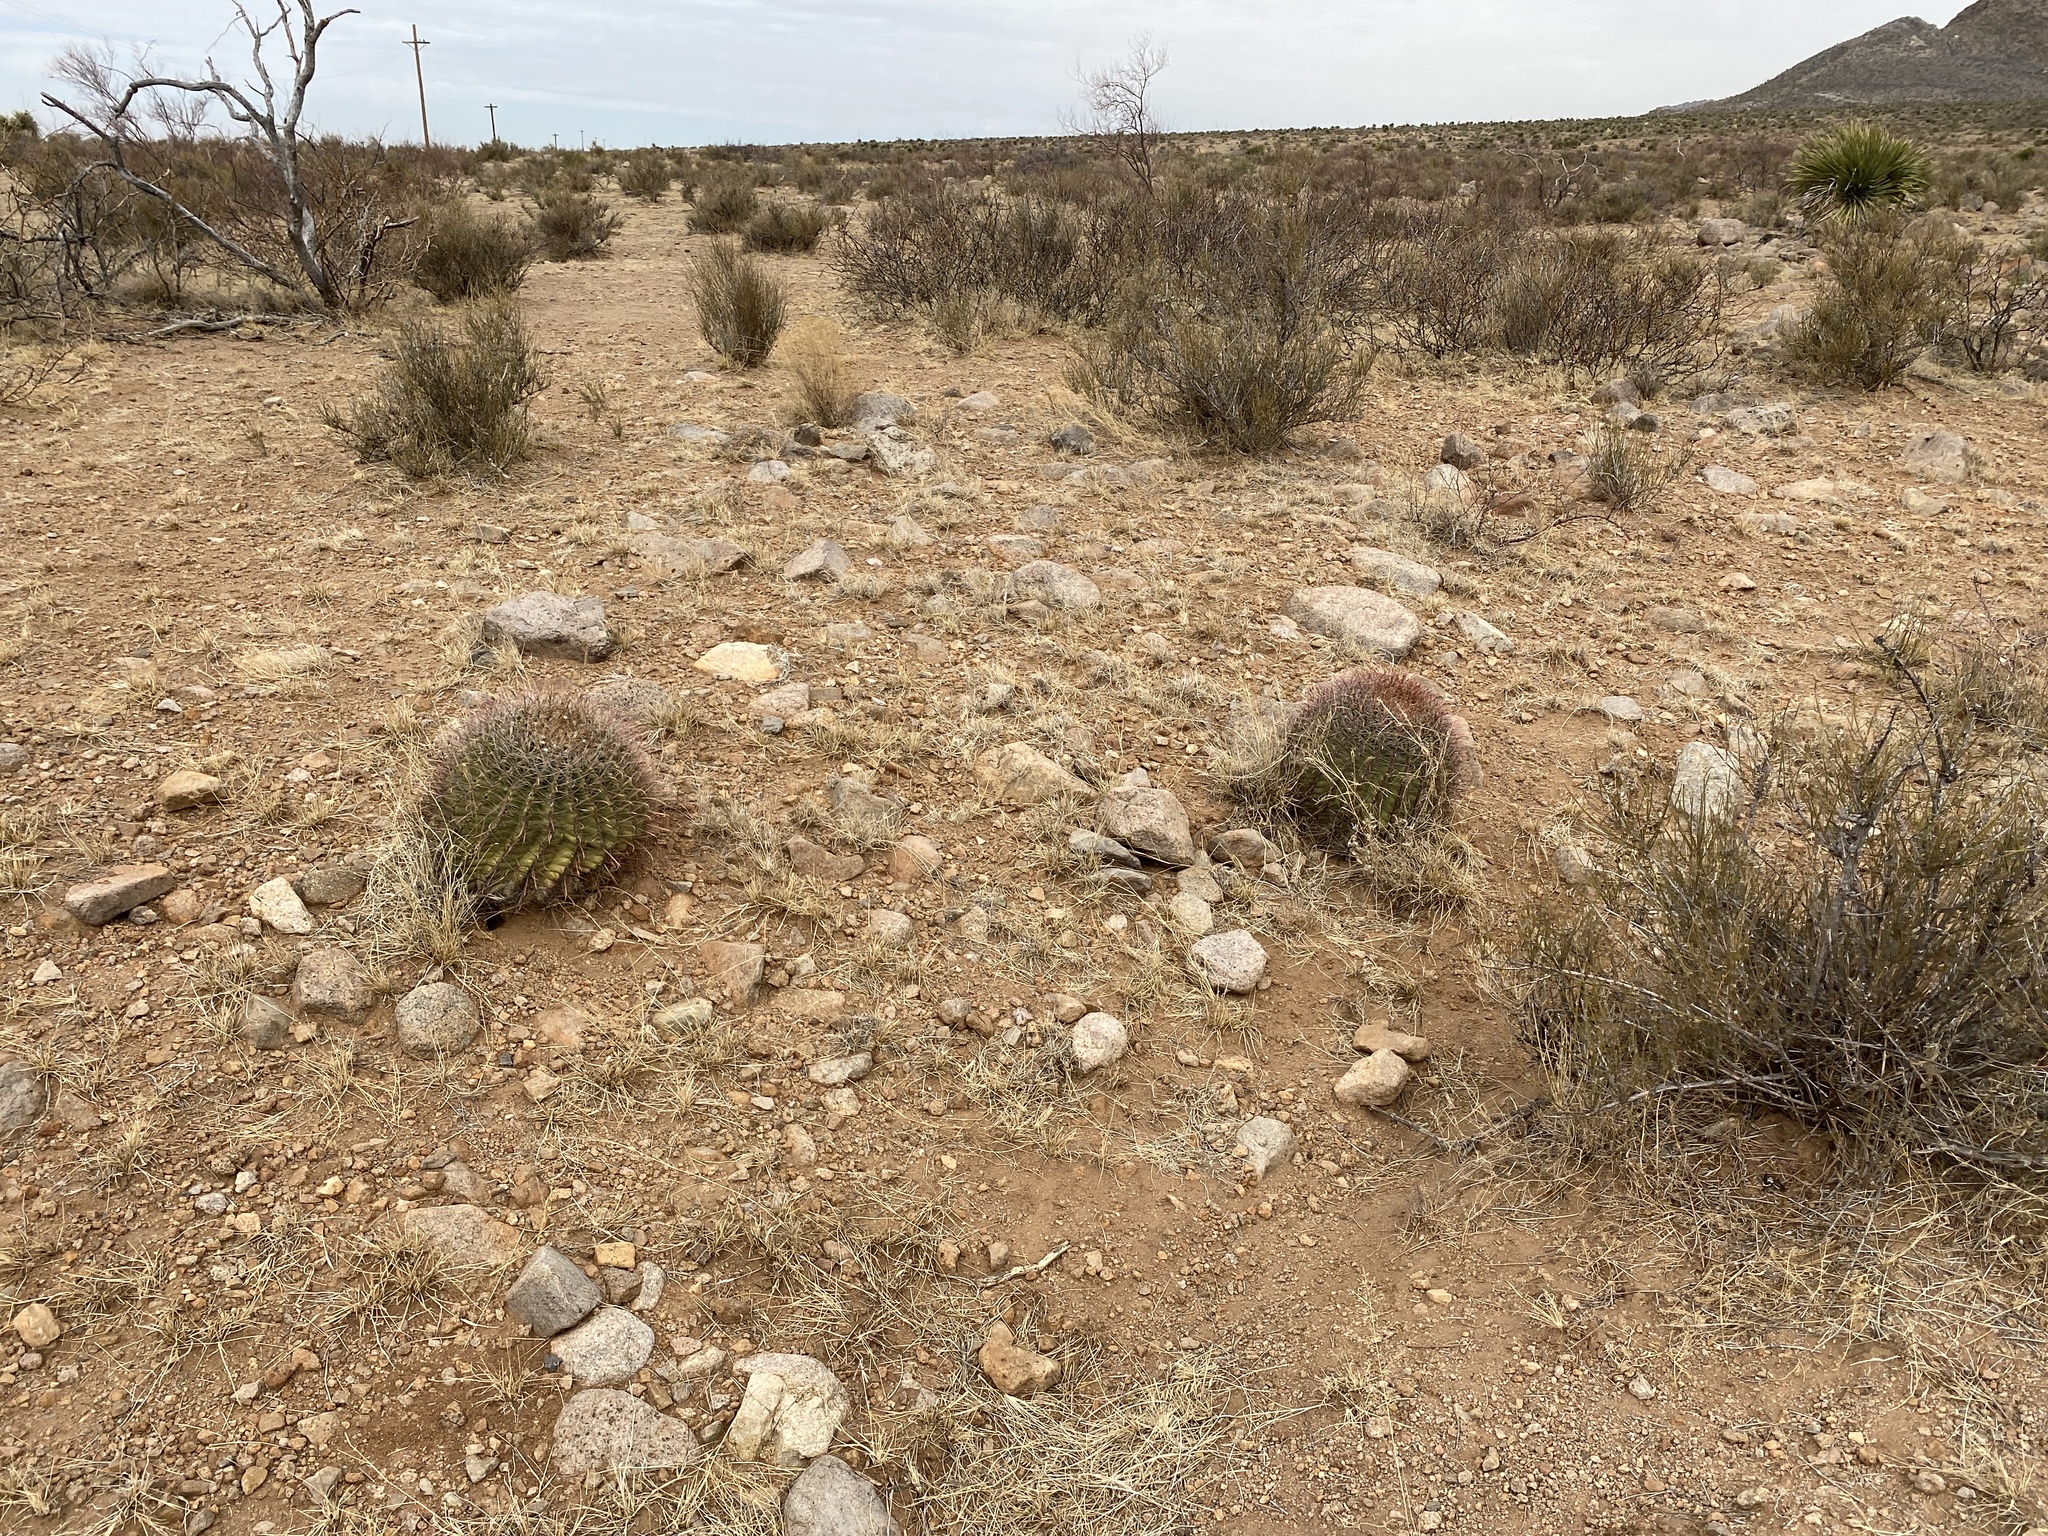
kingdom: Plantae
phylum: Tracheophyta
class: Magnoliopsida
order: Caryophyllales
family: Cactaceae
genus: Ferocactus
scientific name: Ferocactus wislizeni
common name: Candy barrel cactus
